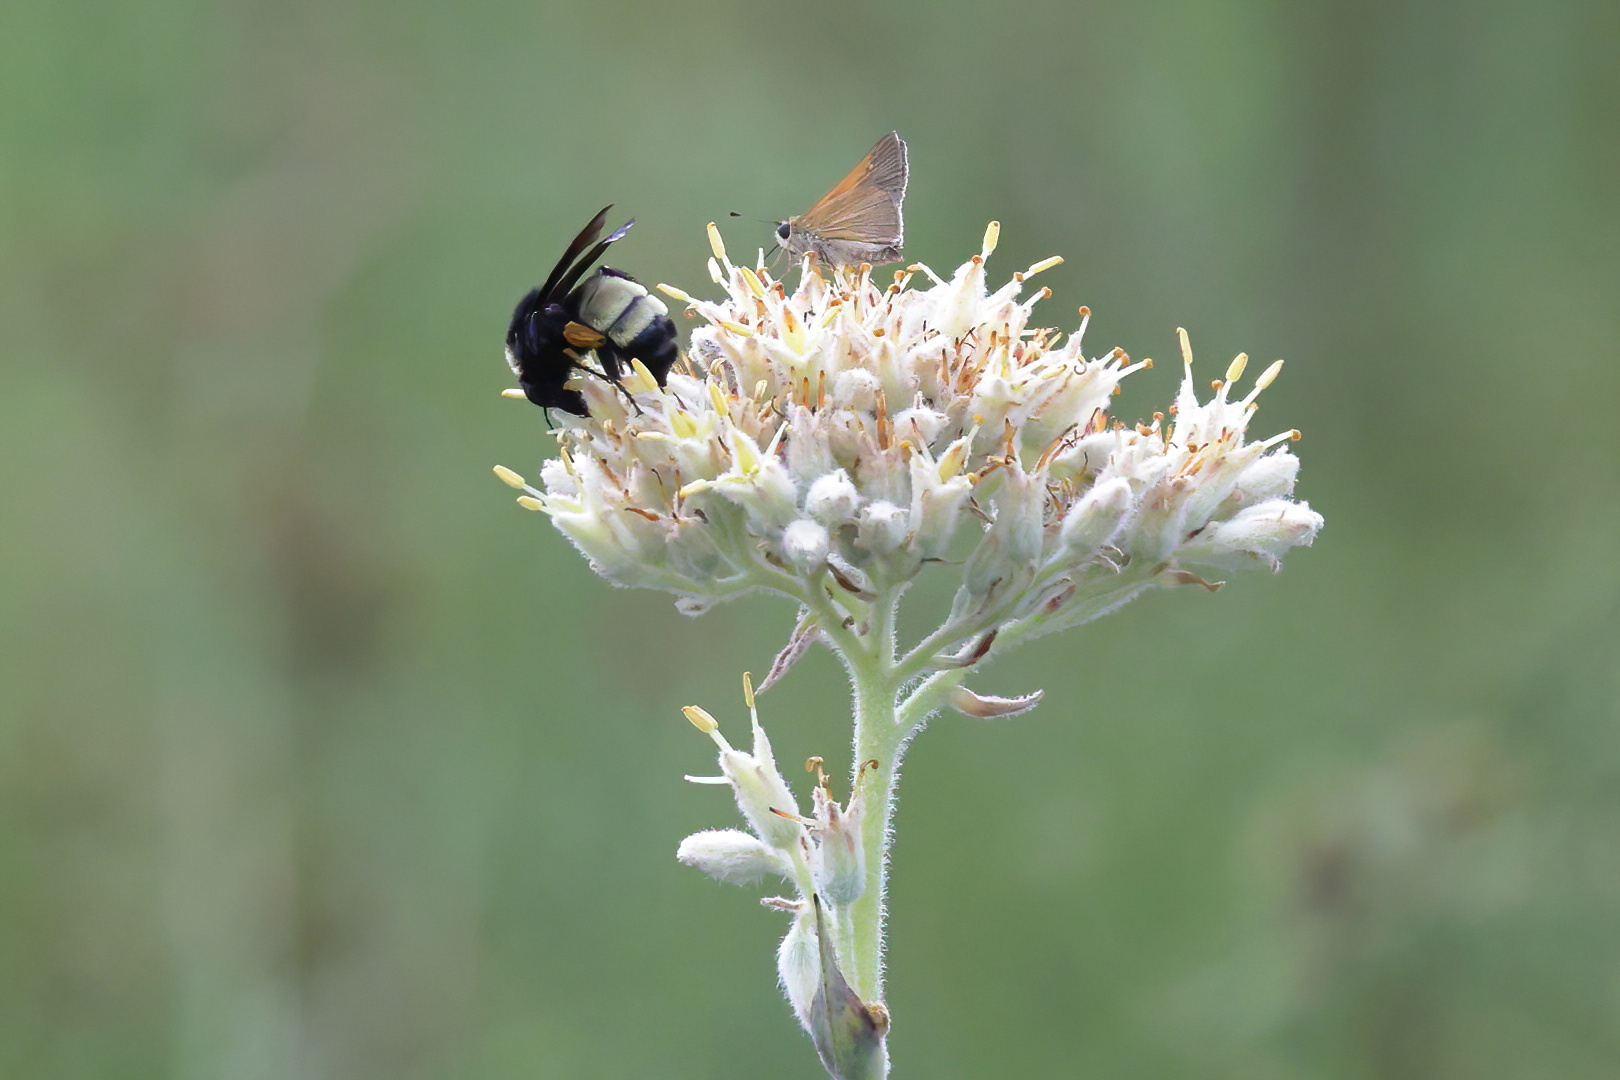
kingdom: Animalia
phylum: Arthropoda
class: Insecta
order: Hymenoptera
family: Apidae
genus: Bombus
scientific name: Bombus pensylvanicus
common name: Bumble bee
